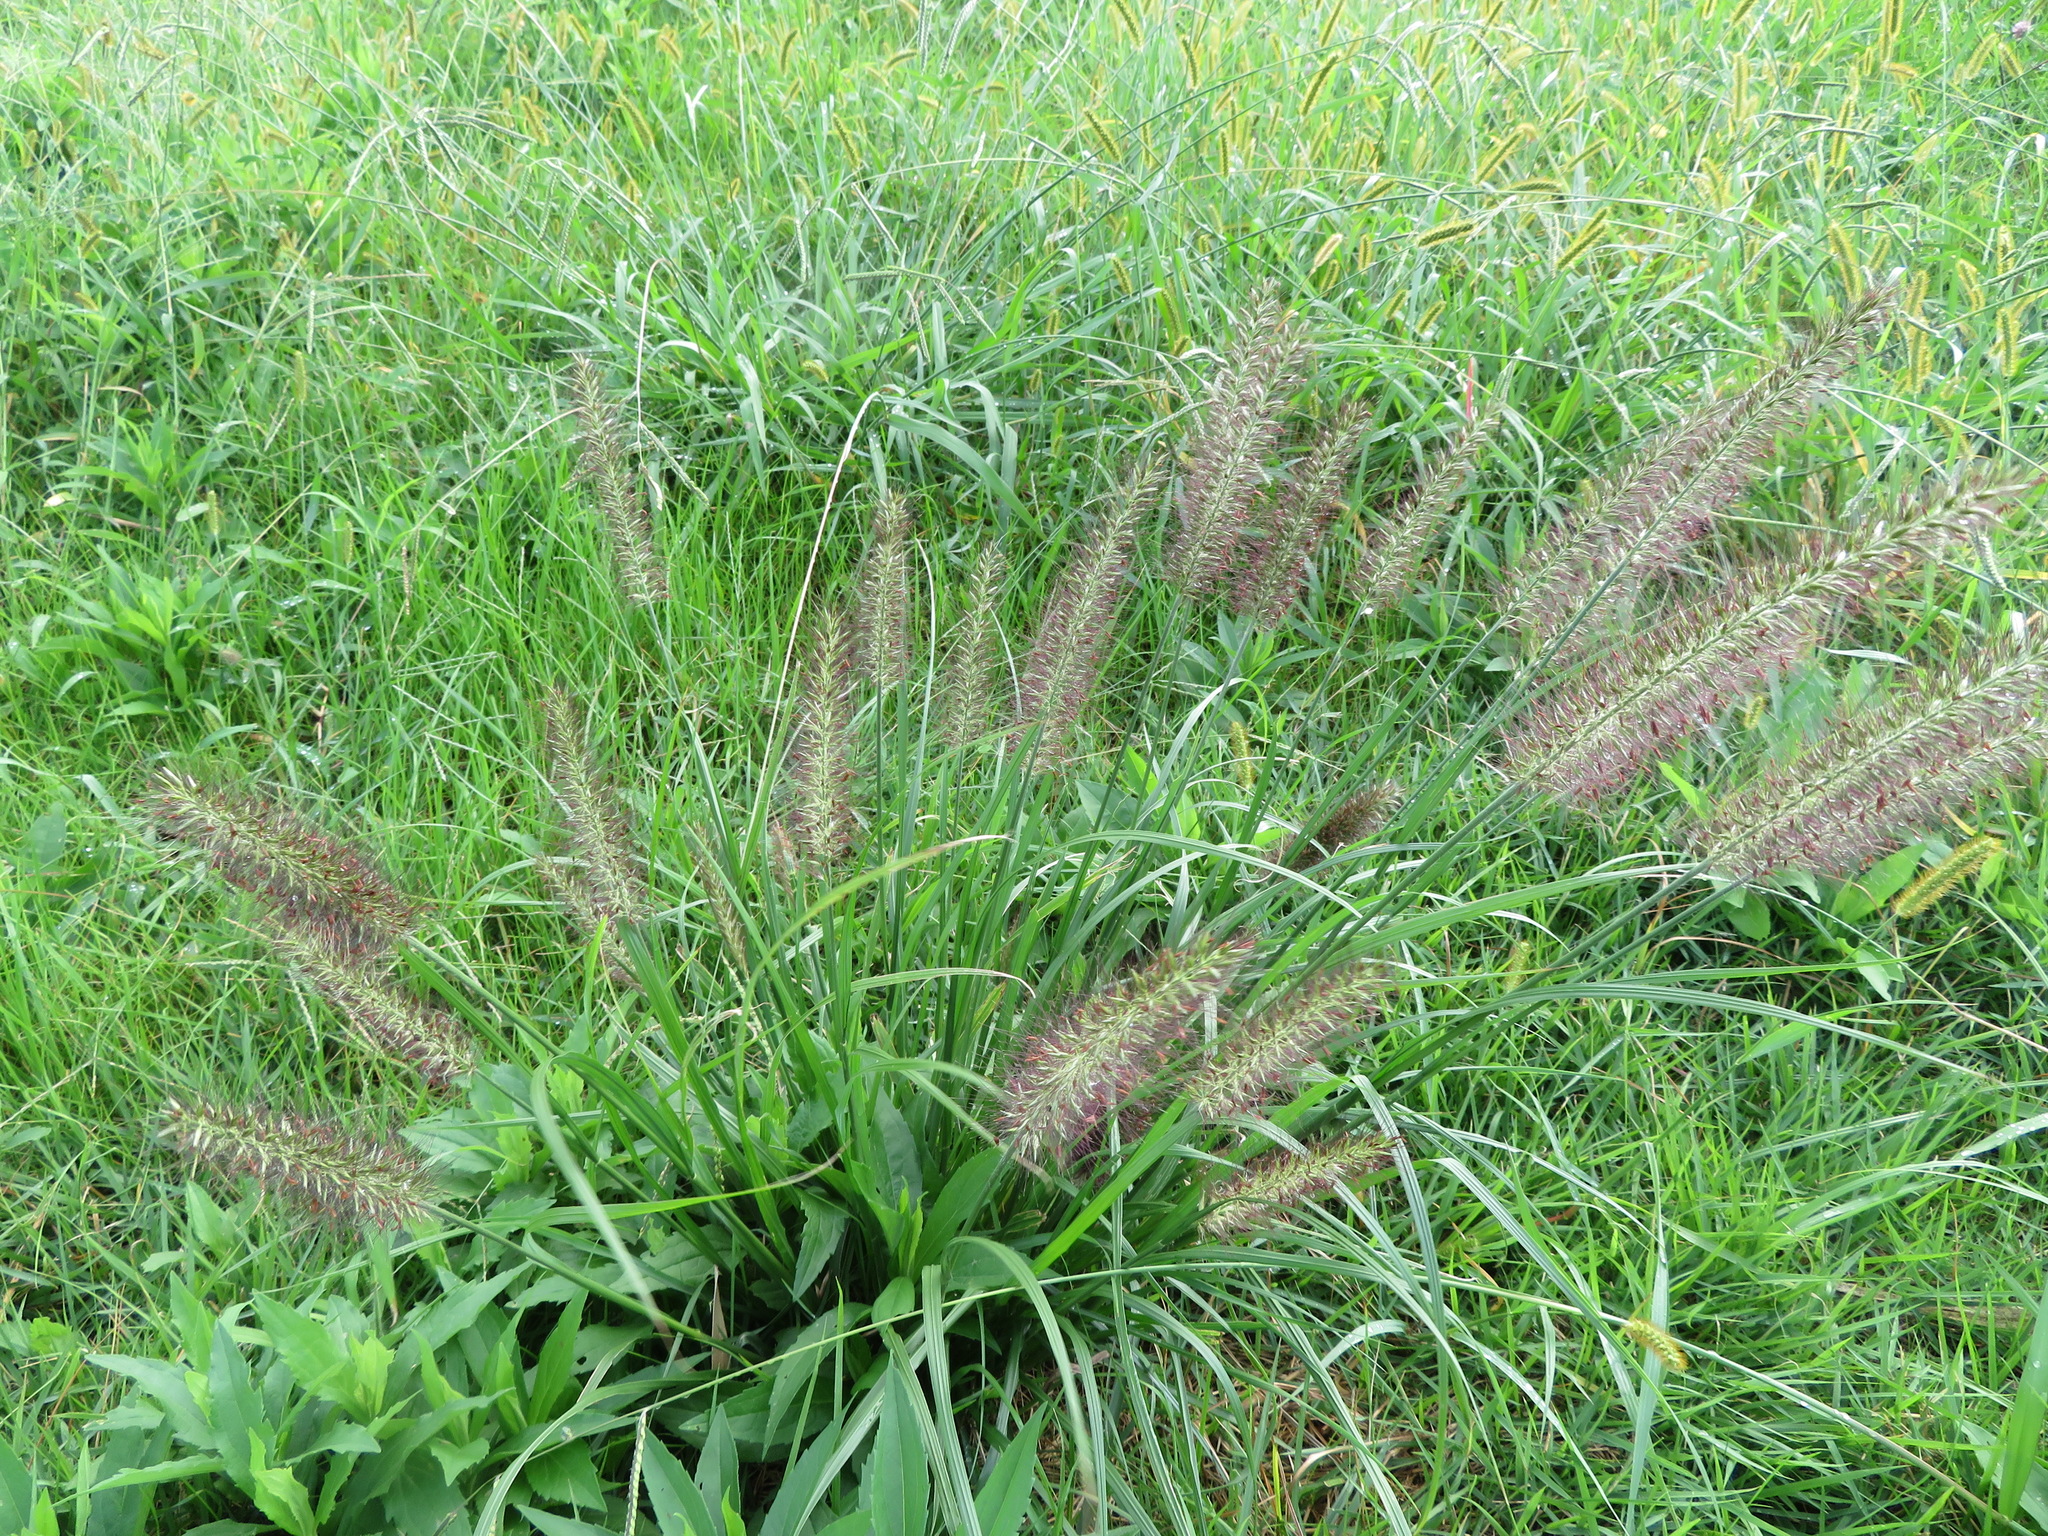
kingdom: Plantae
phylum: Tracheophyta
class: Liliopsida
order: Poales
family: Poaceae
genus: Cenchrus
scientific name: Cenchrus alopecuroides
